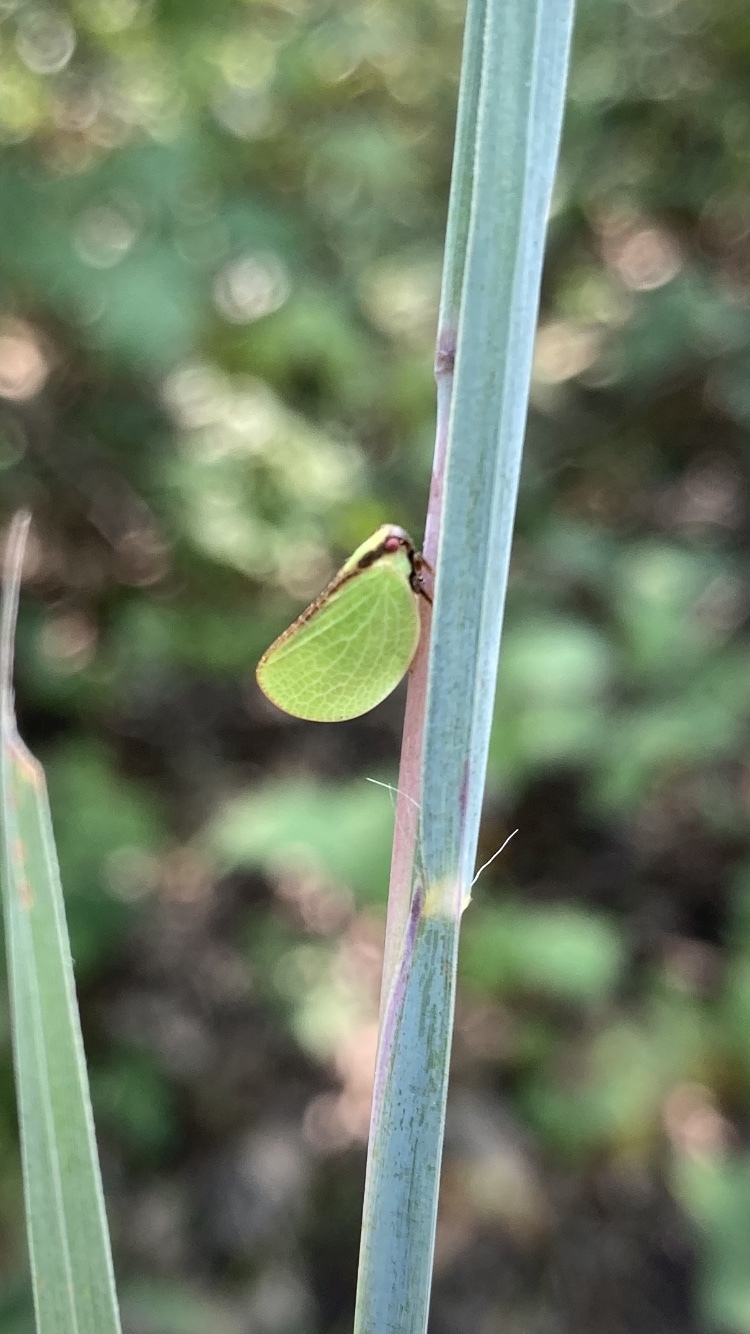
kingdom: Animalia
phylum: Arthropoda
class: Insecta
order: Hemiptera
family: Acanaloniidae
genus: Acanalonia
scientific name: Acanalonia bivittata
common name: Two-striped planthopper
